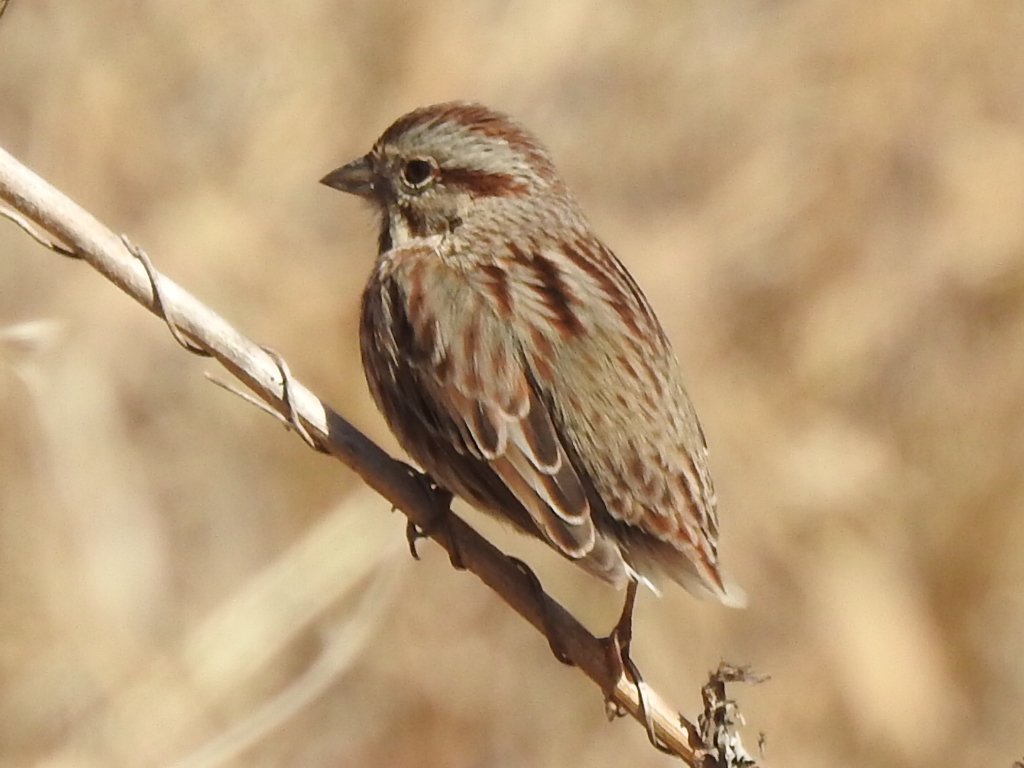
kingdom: Animalia
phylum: Chordata
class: Aves
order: Passeriformes
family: Passerellidae
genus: Melospiza
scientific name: Melospiza melodia
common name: Song sparrow
